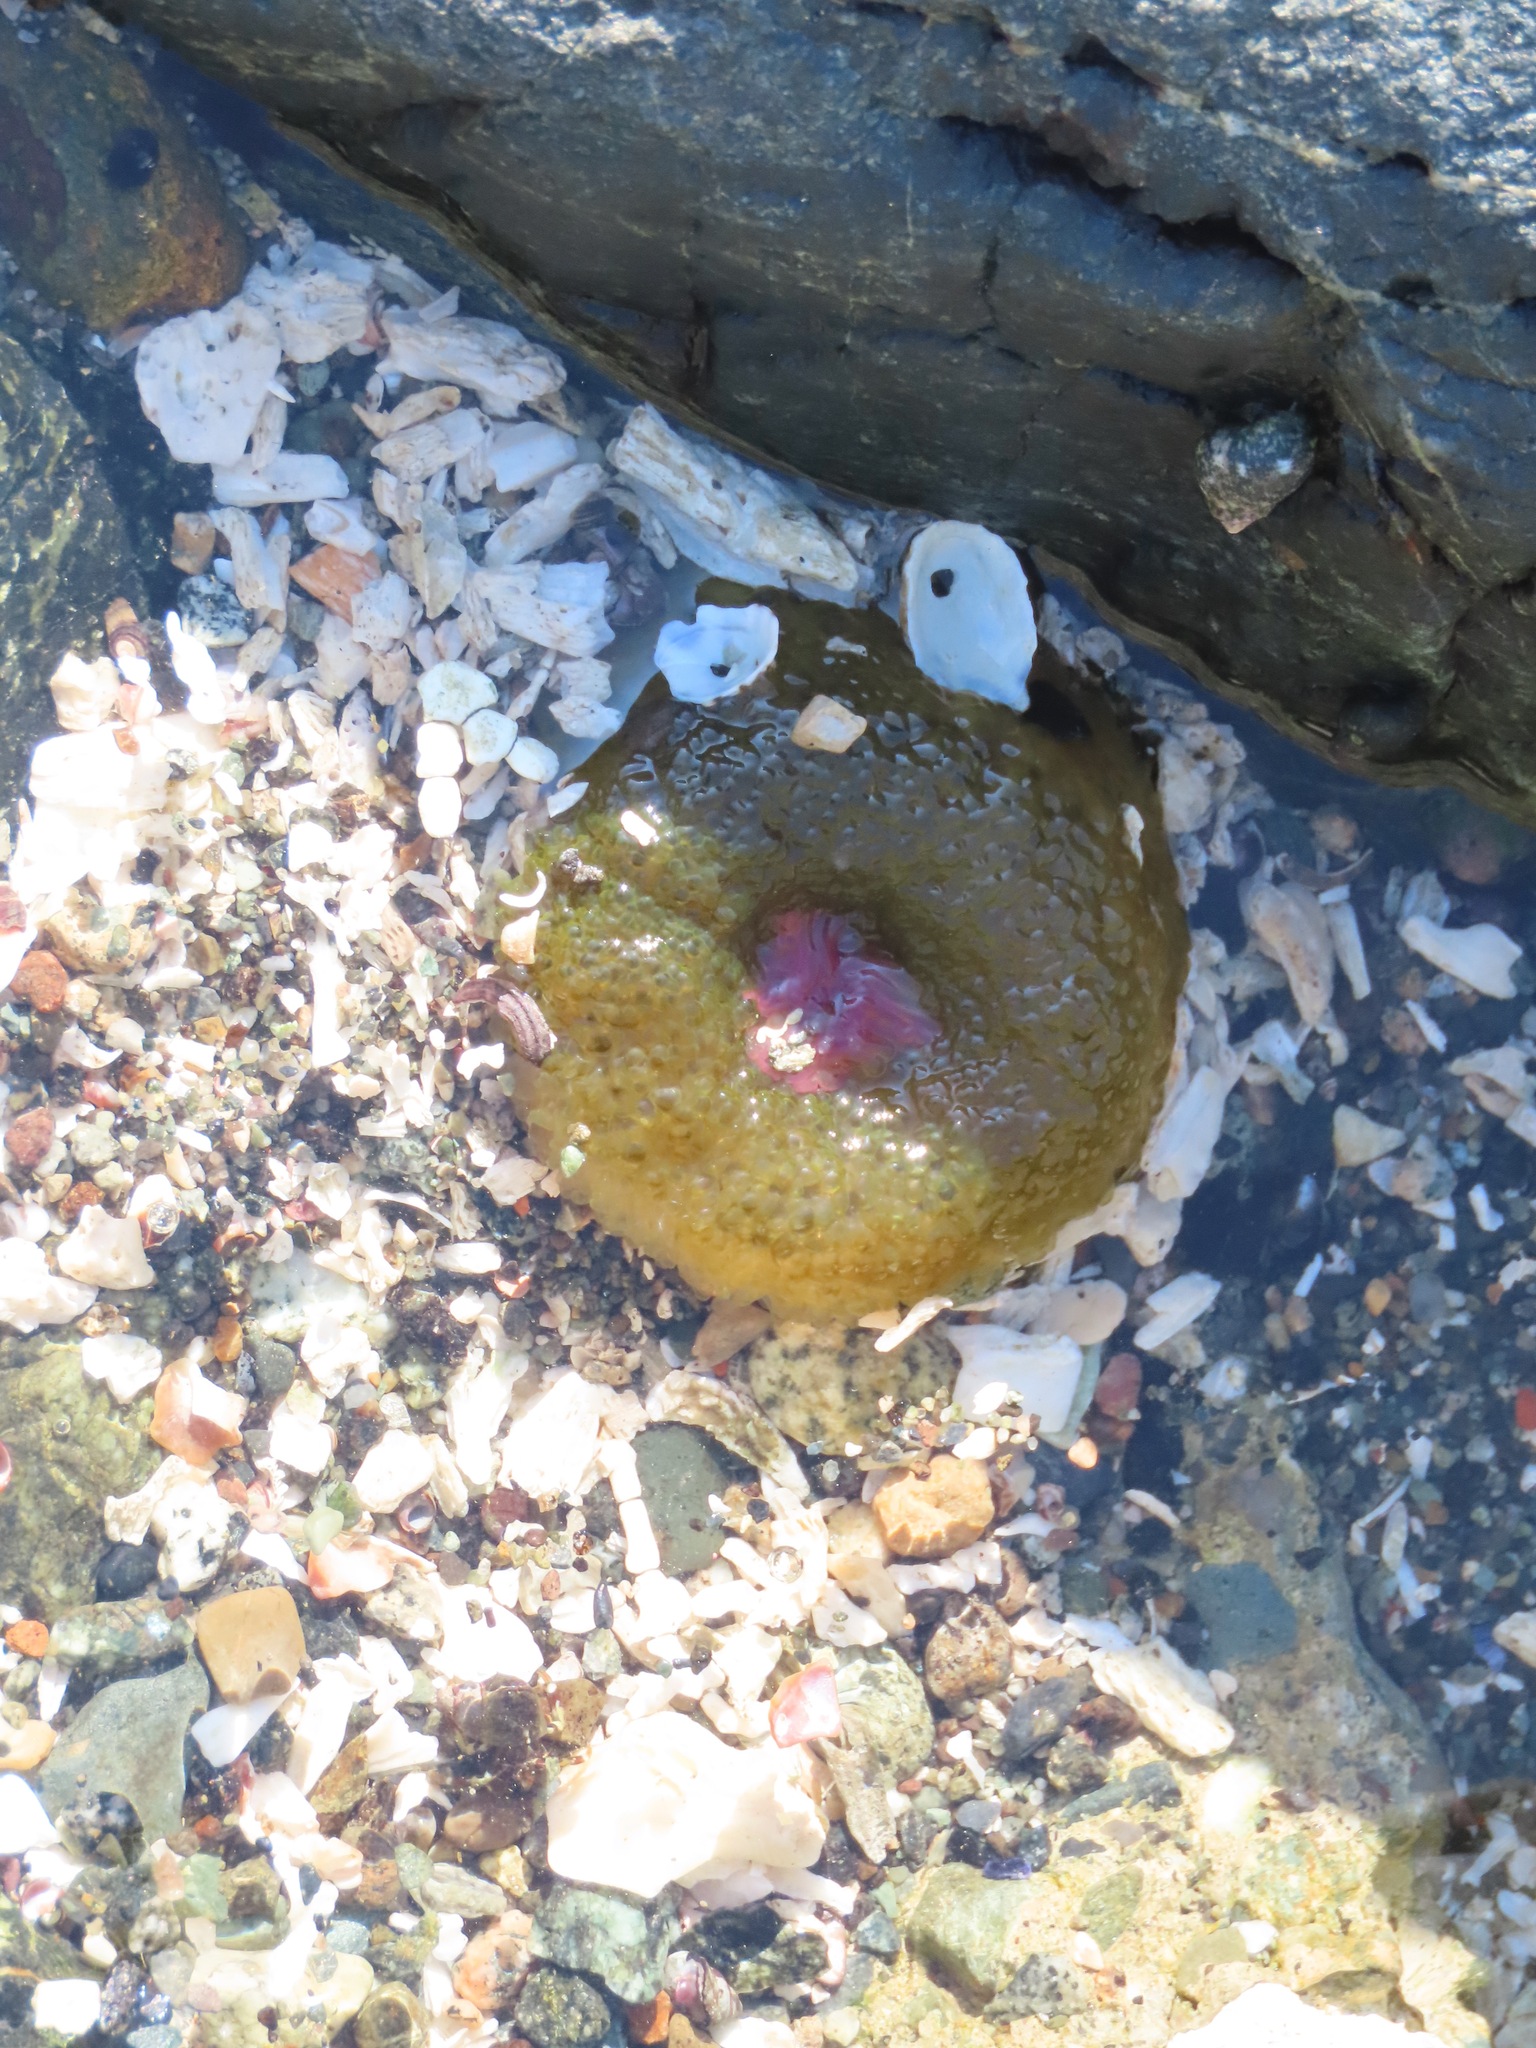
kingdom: Animalia
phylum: Cnidaria
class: Anthozoa
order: Actiniaria
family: Actiniidae
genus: Anthopleura
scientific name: Anthopleura elegantissima
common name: Clonal anemone
